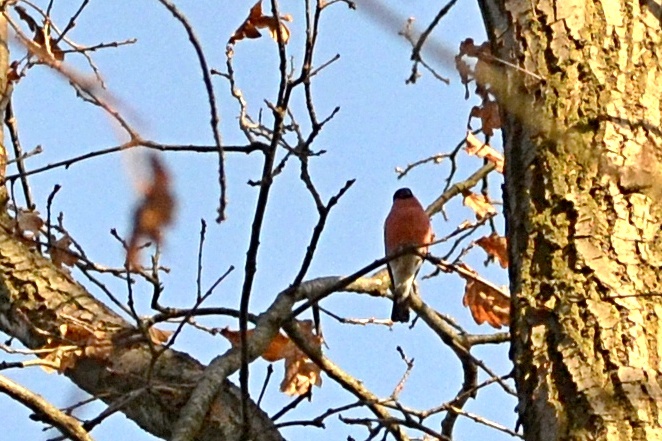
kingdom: Animalia
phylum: Chordata
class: Aves
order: Passeriformes
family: Fringillidae
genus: Pyrrhula
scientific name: Pyrrhula pyrrhula
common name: Eurasian bullfinch
